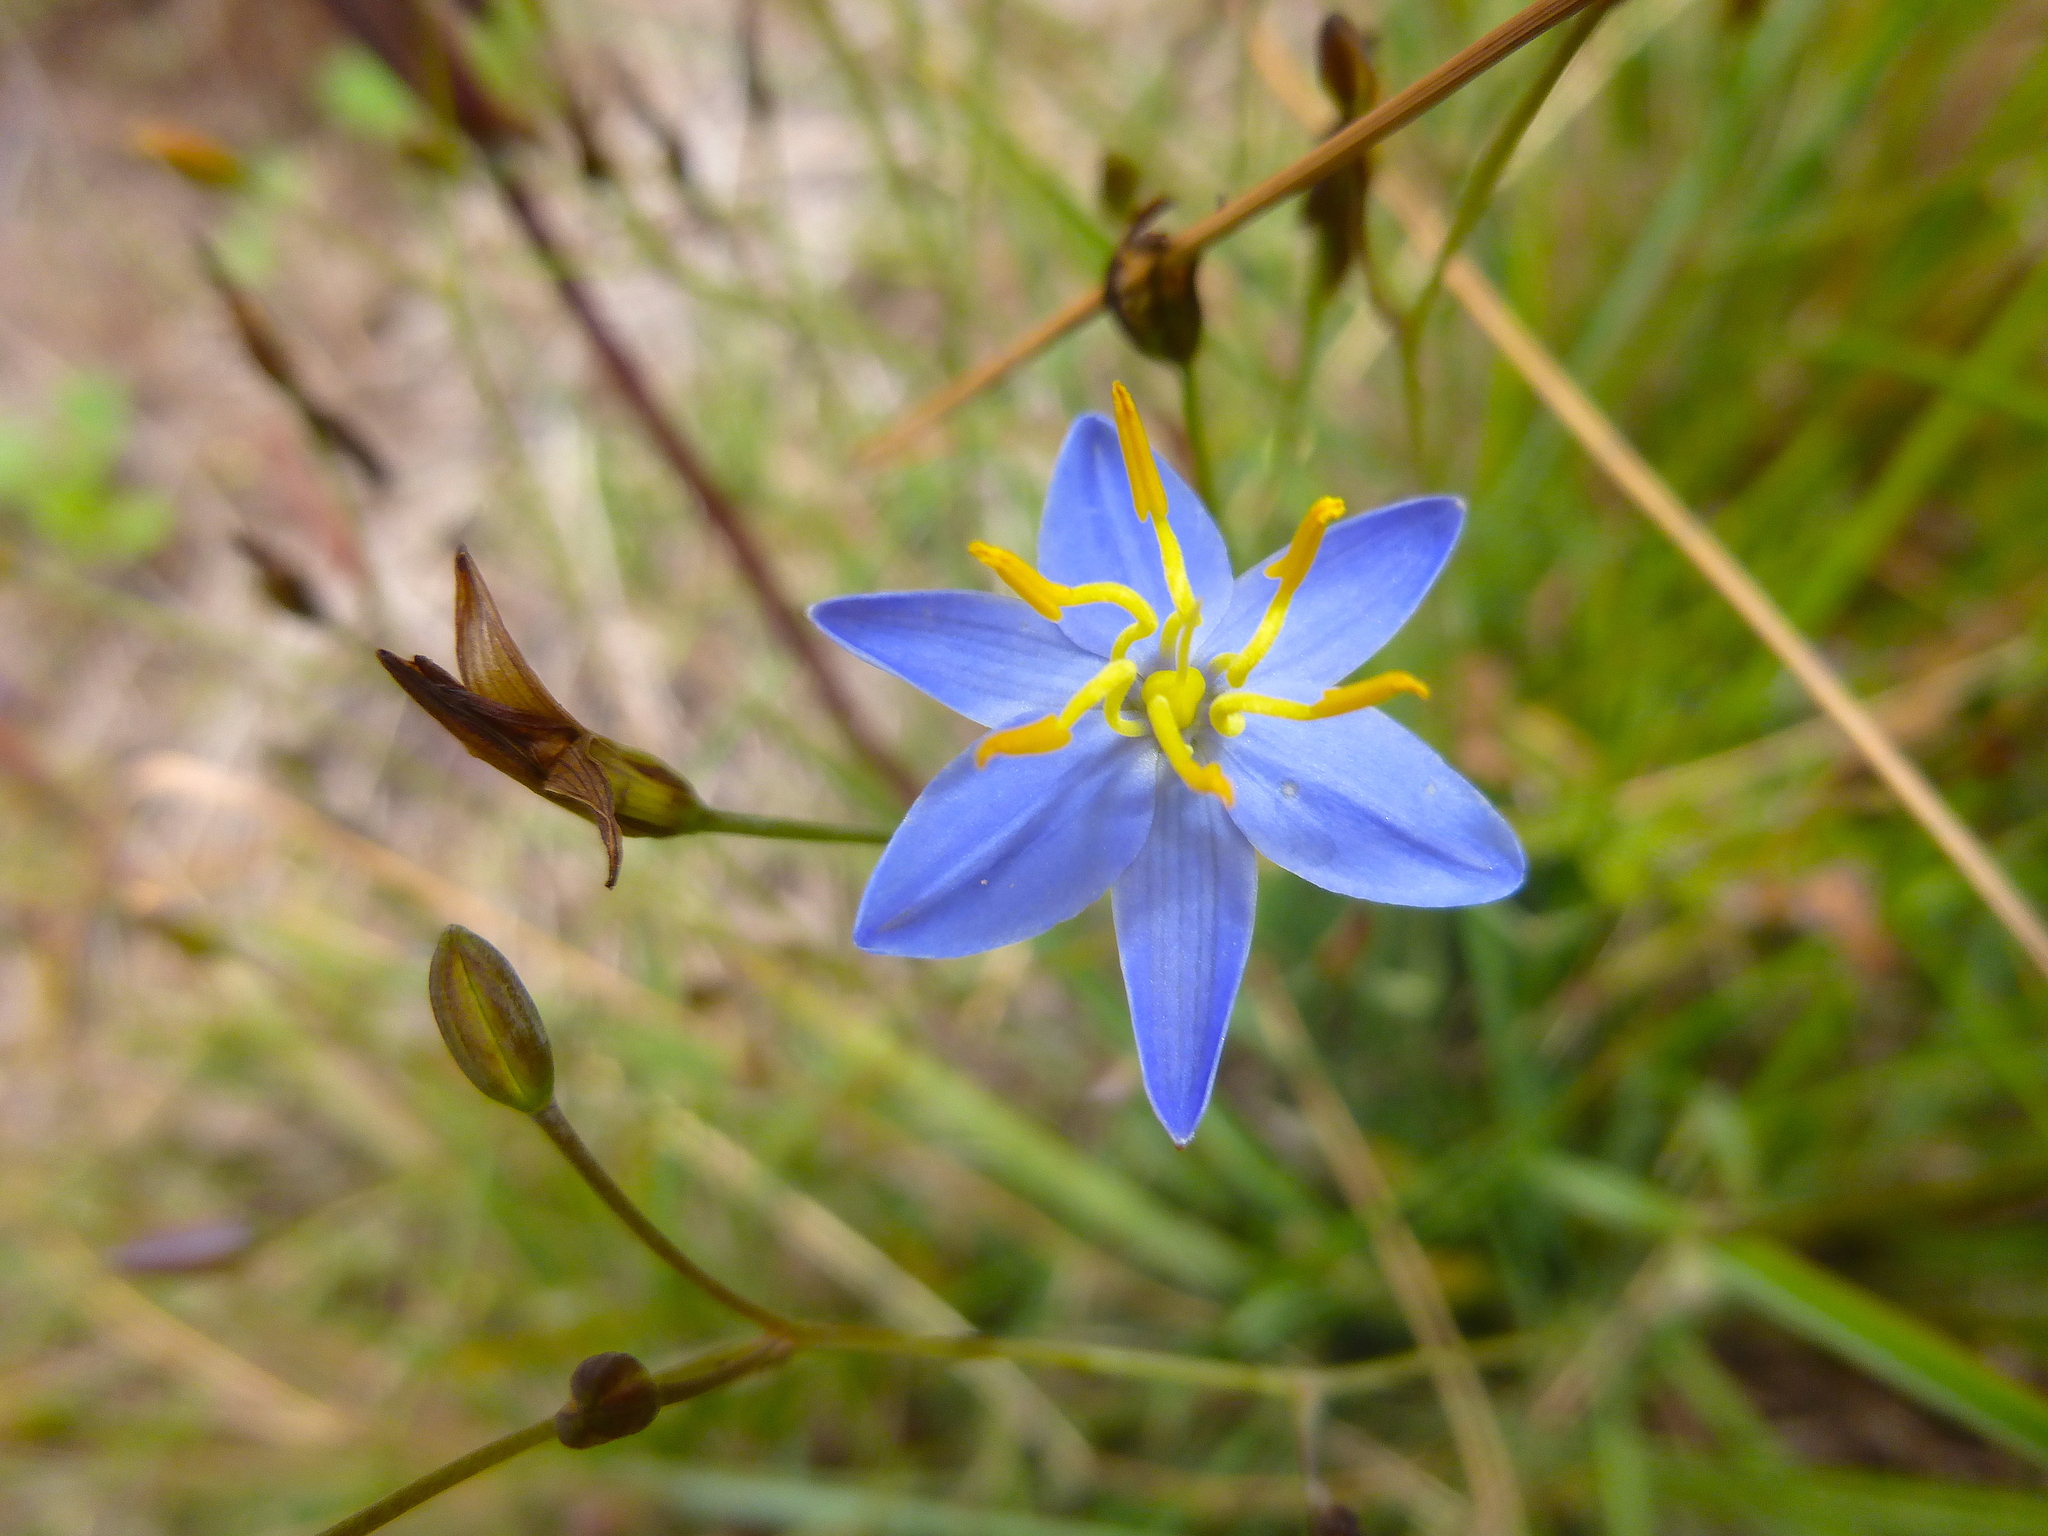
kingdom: Plantae
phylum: Tracheophyta
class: Liliopsida
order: Asparagales
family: Asphodelaceae
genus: Thelionema
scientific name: Thelionema caespitosum
